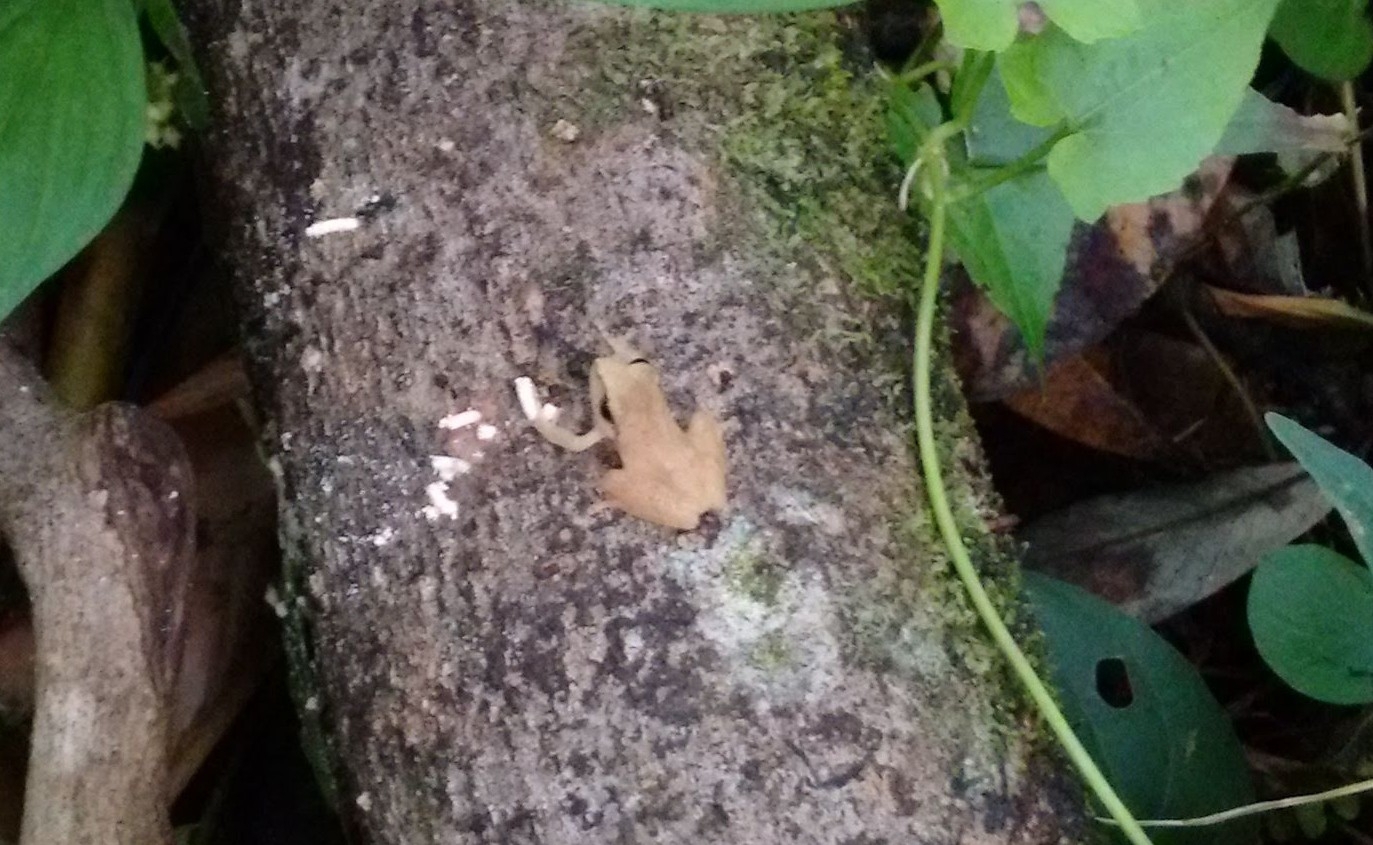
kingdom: Animalia
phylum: Chordata
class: Amphibia
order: Anura
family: Rhacophoridae
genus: Pseudophilautus
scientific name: Pseudophilautus wynaadensis
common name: Dark-eared bush frog
